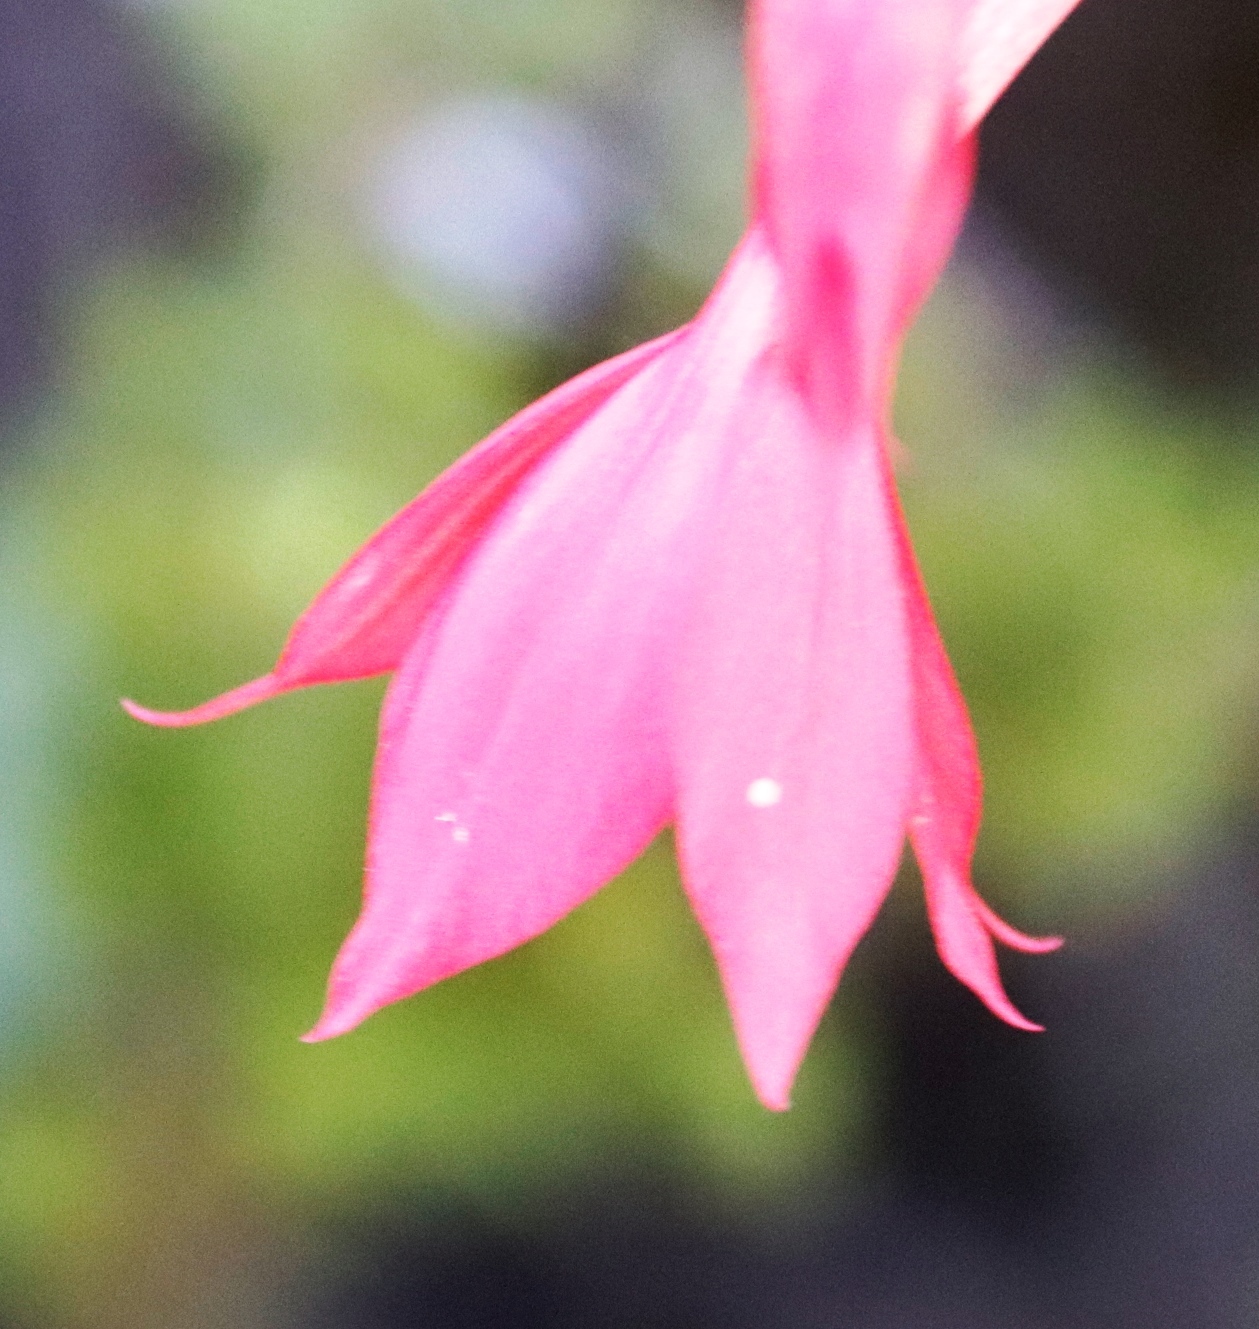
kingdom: Plantae
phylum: Tracheophyta
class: Liliopsida
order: Asparagales
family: Iridaceae
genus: Gladiolus
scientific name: Gladiolus priorii
